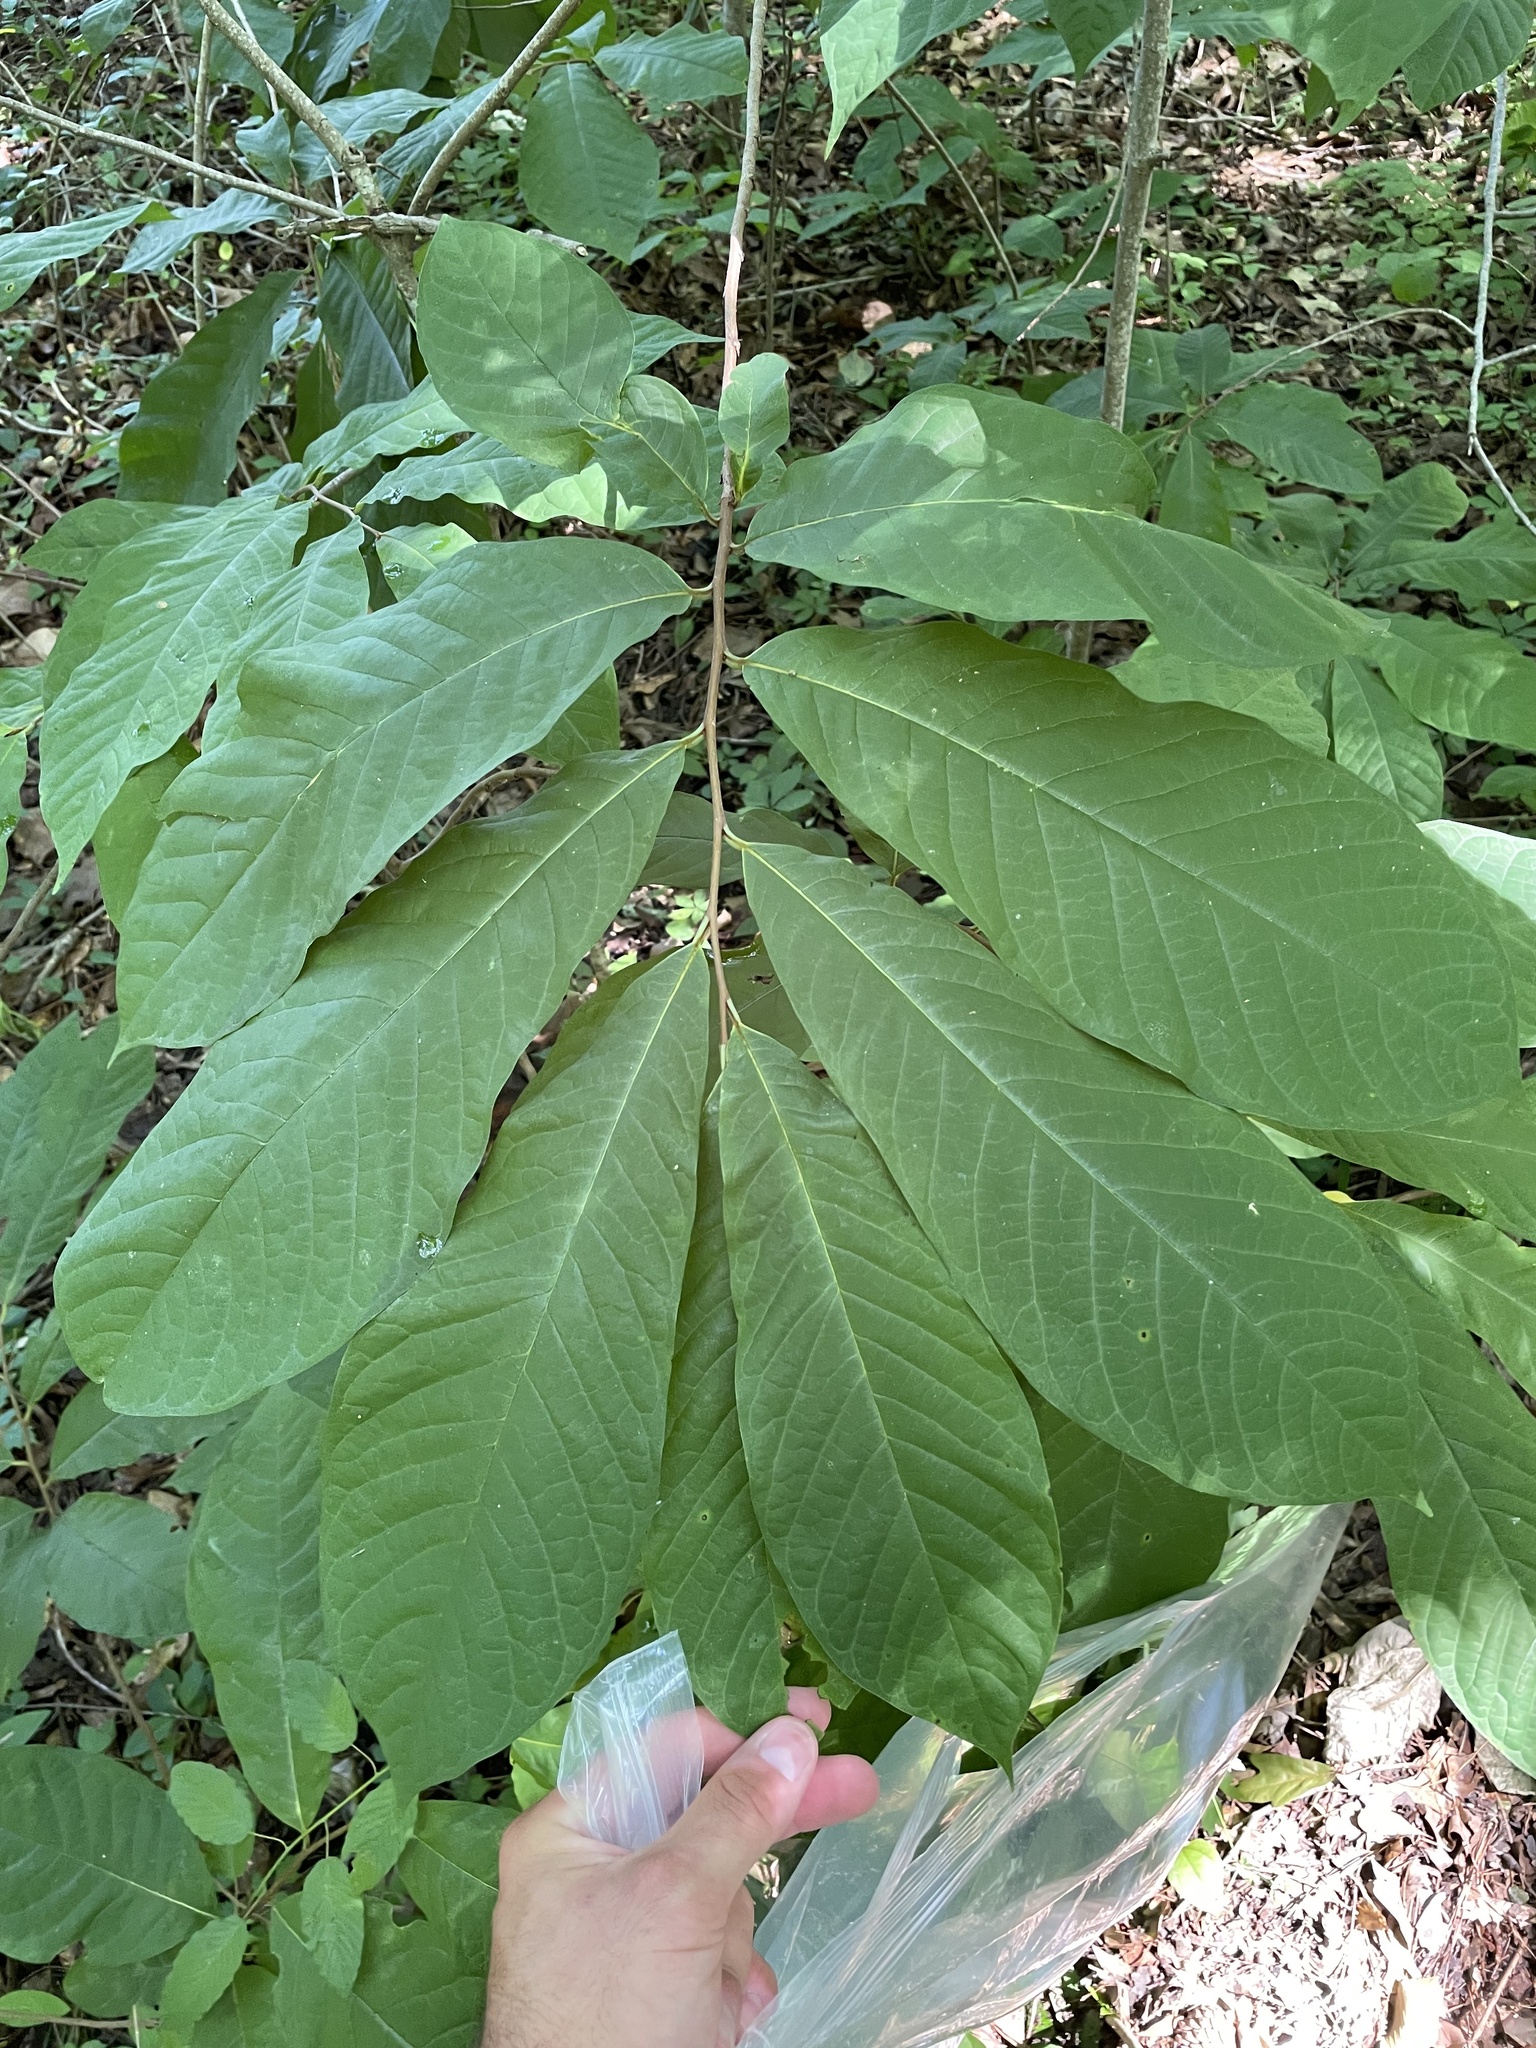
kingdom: Plantae
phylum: Tracheophyta
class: Magnoliopsida
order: Magnoliales
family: Annonaceae
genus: Asimina
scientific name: Asimina triloba
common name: Dog-banana
